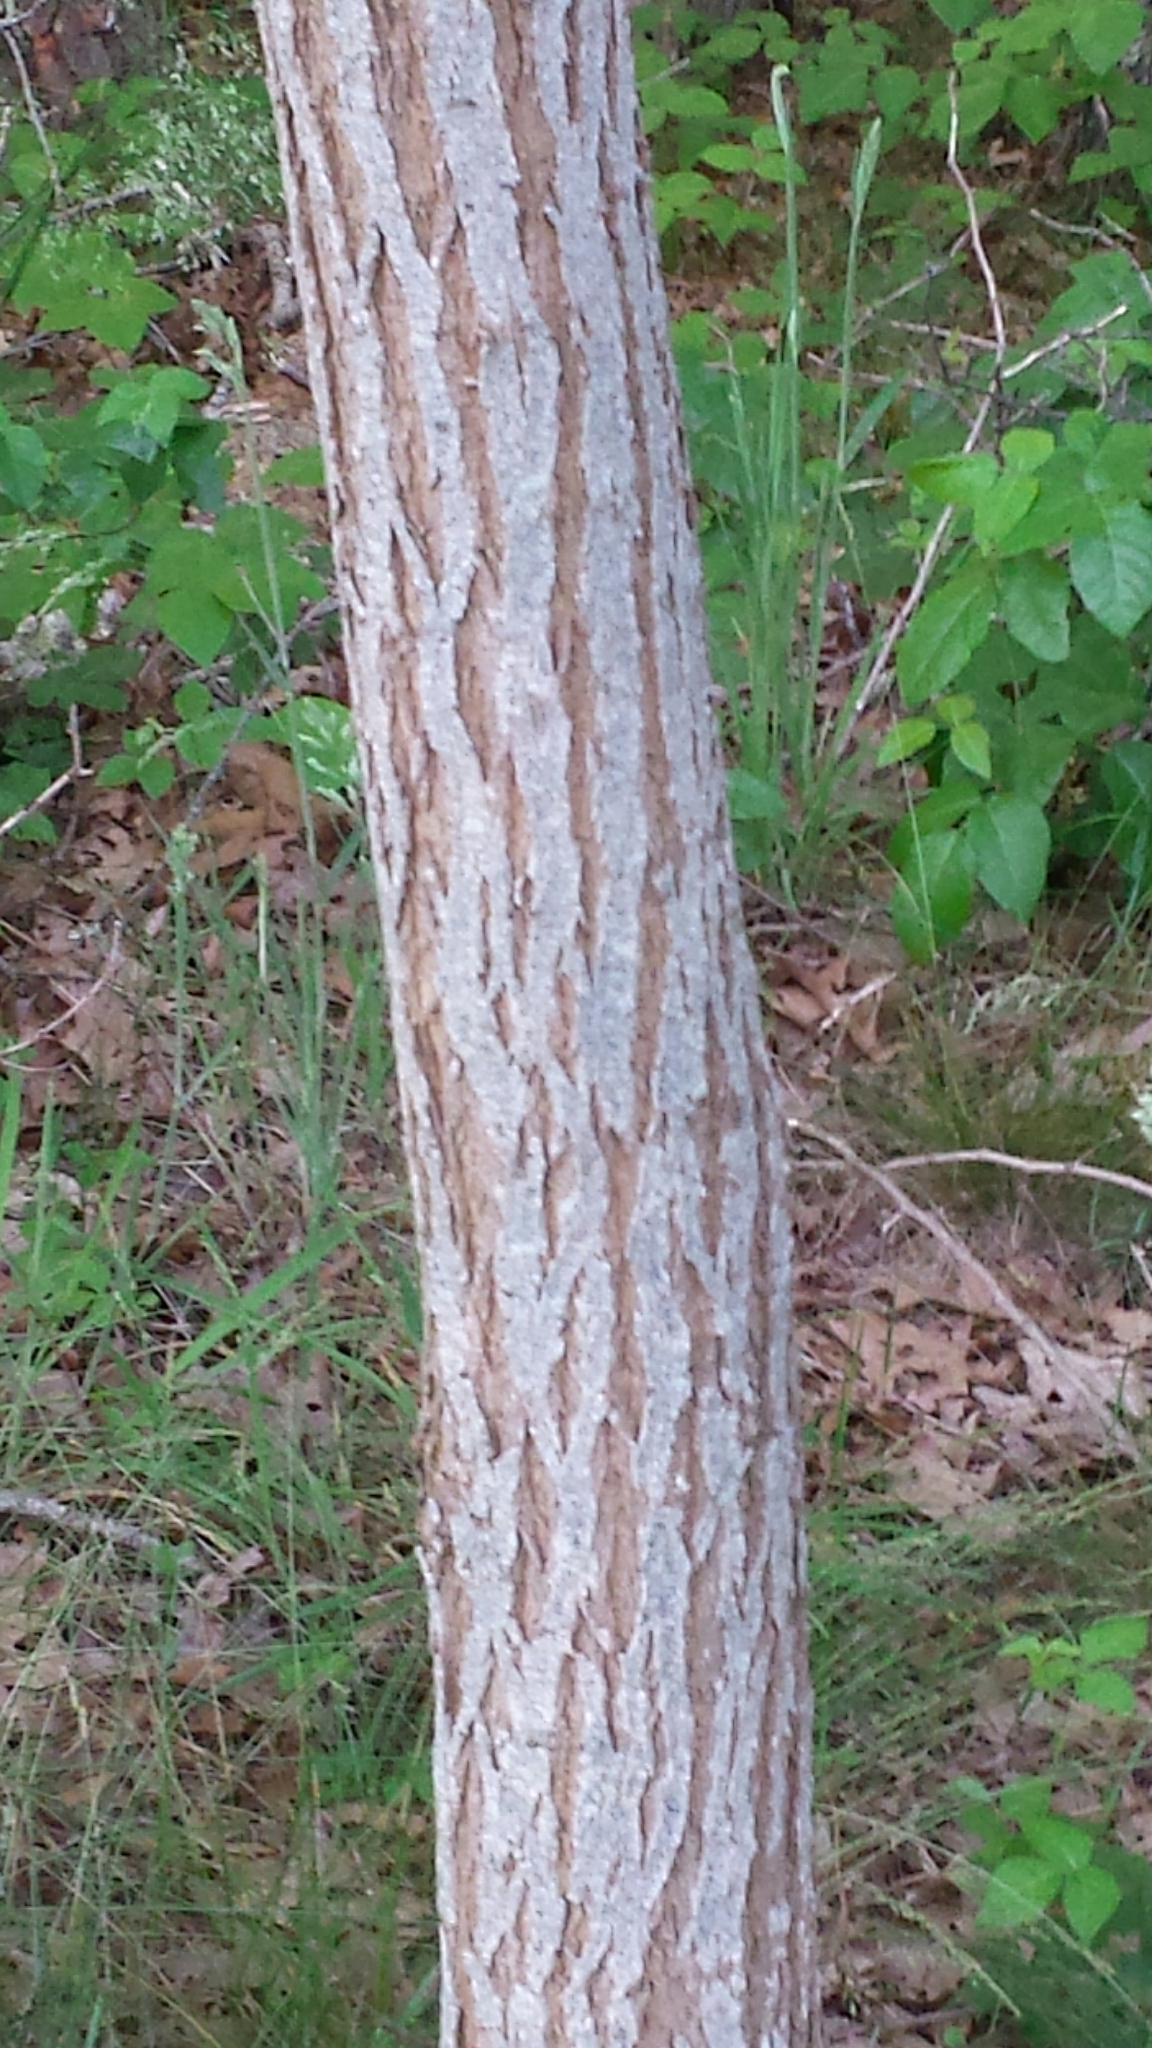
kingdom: Plantae
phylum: Tracheophyta
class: Magnoliopsida
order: Fabales
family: Fabaceae
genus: Robinia
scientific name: Robinia pseudoacacia
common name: Black locust
